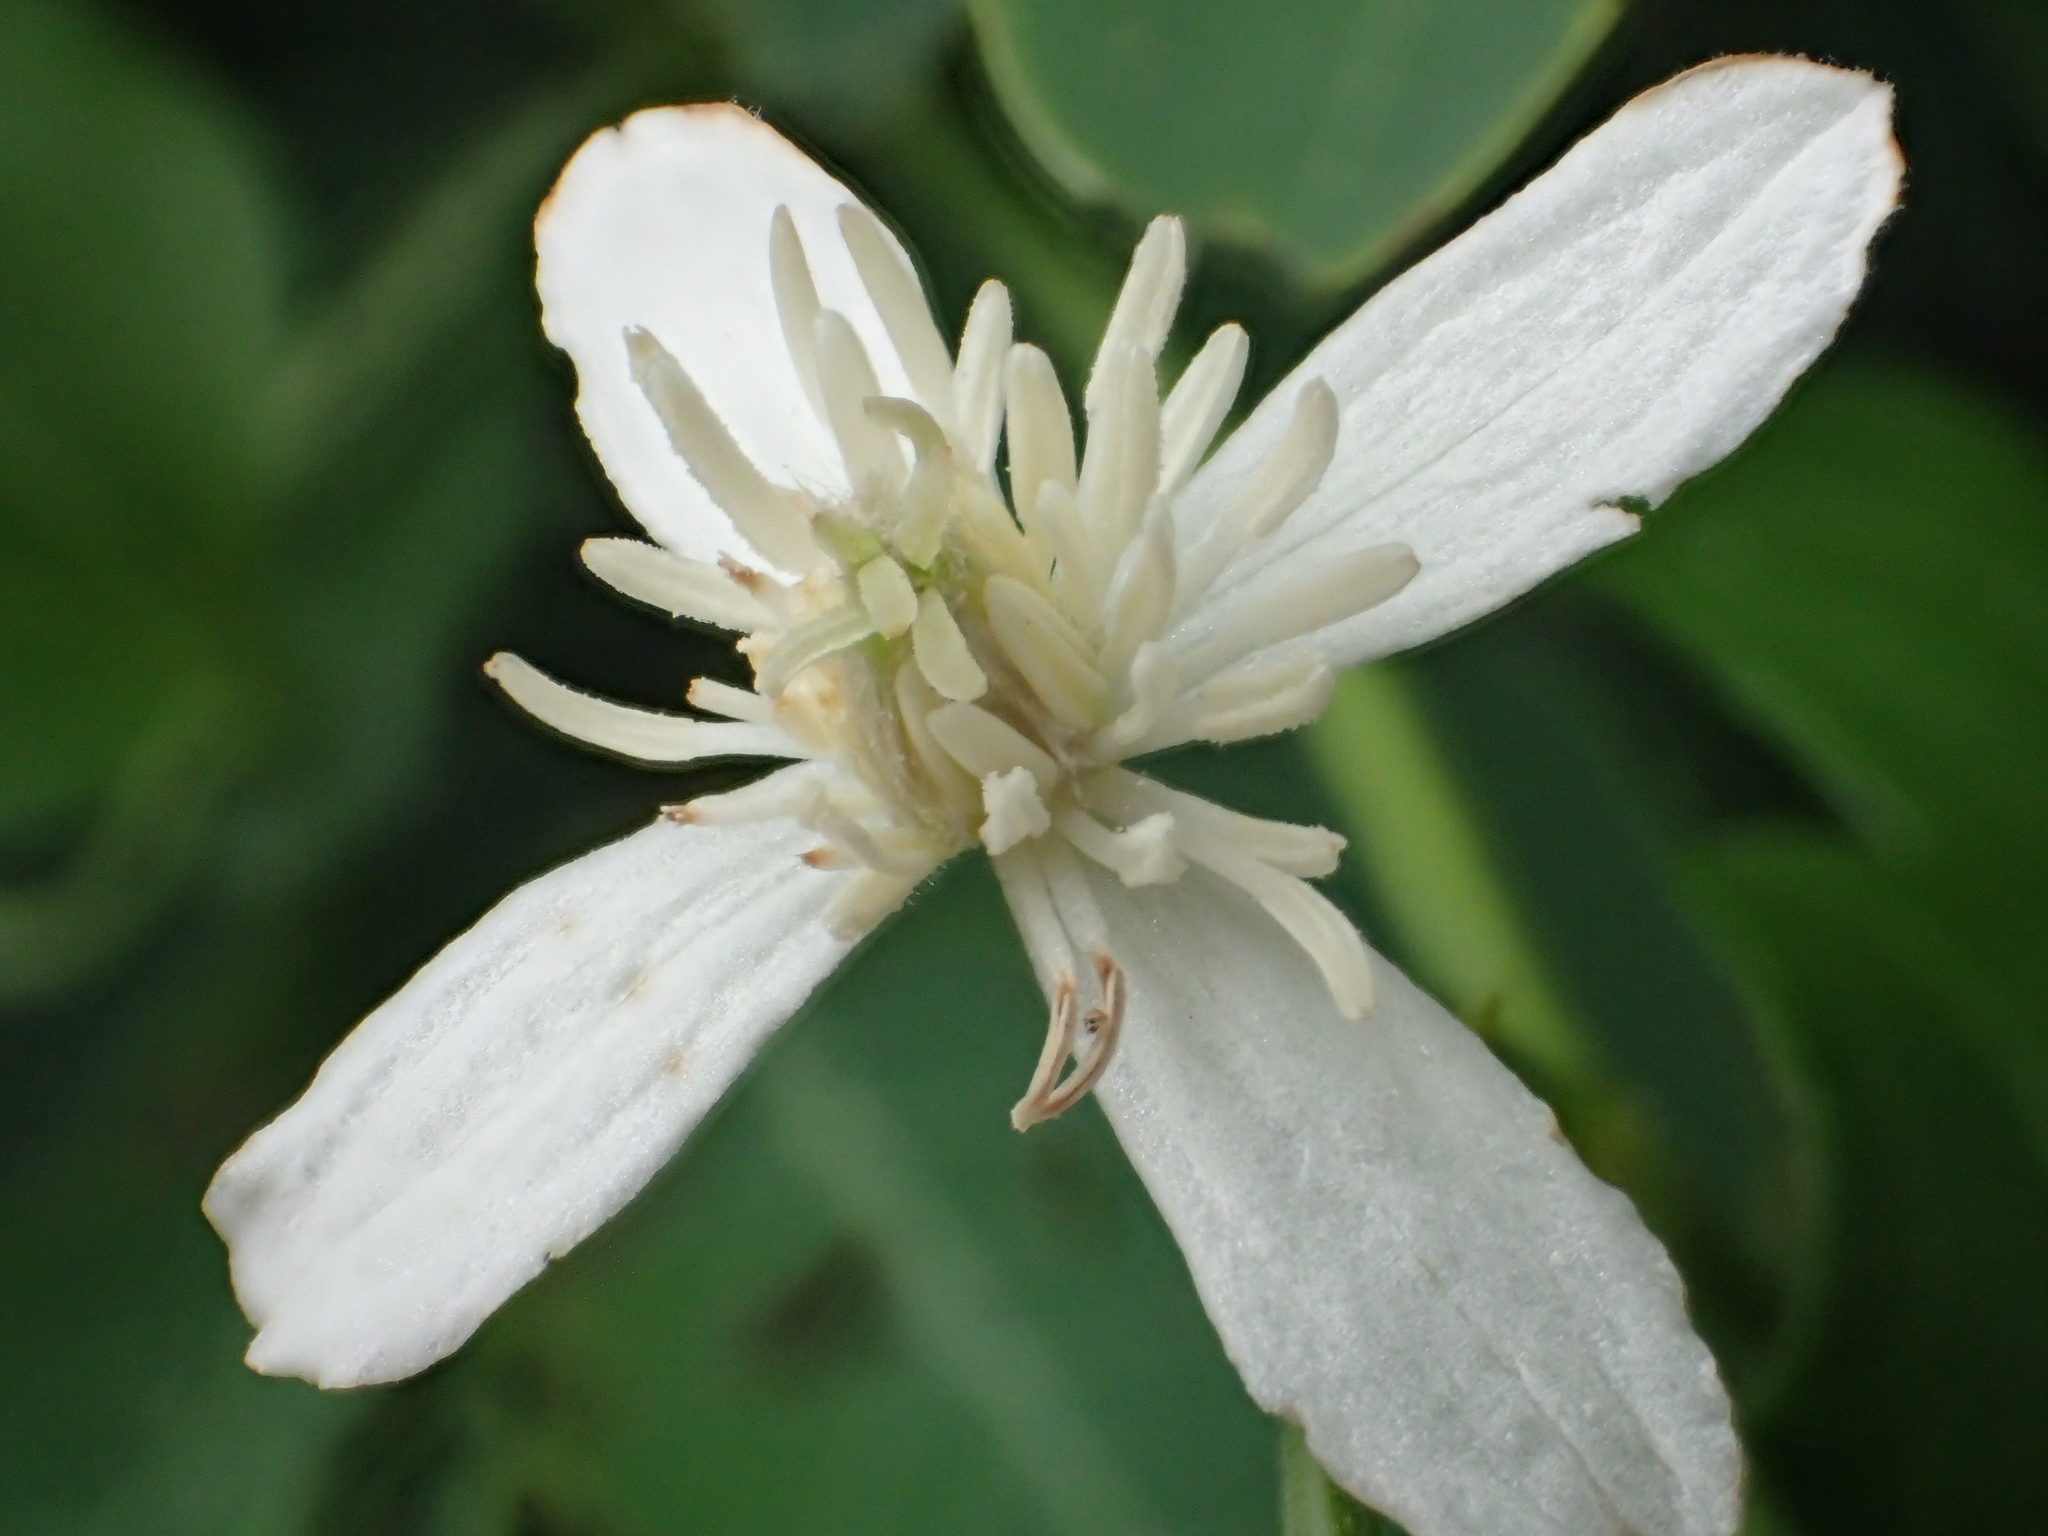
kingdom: Plantae
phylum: Tracheophyta
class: Magnoliopsida
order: Ranunculales
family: Ranunculaceae
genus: Clematis
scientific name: Clematis terniflora
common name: Sweet autumn clematis
